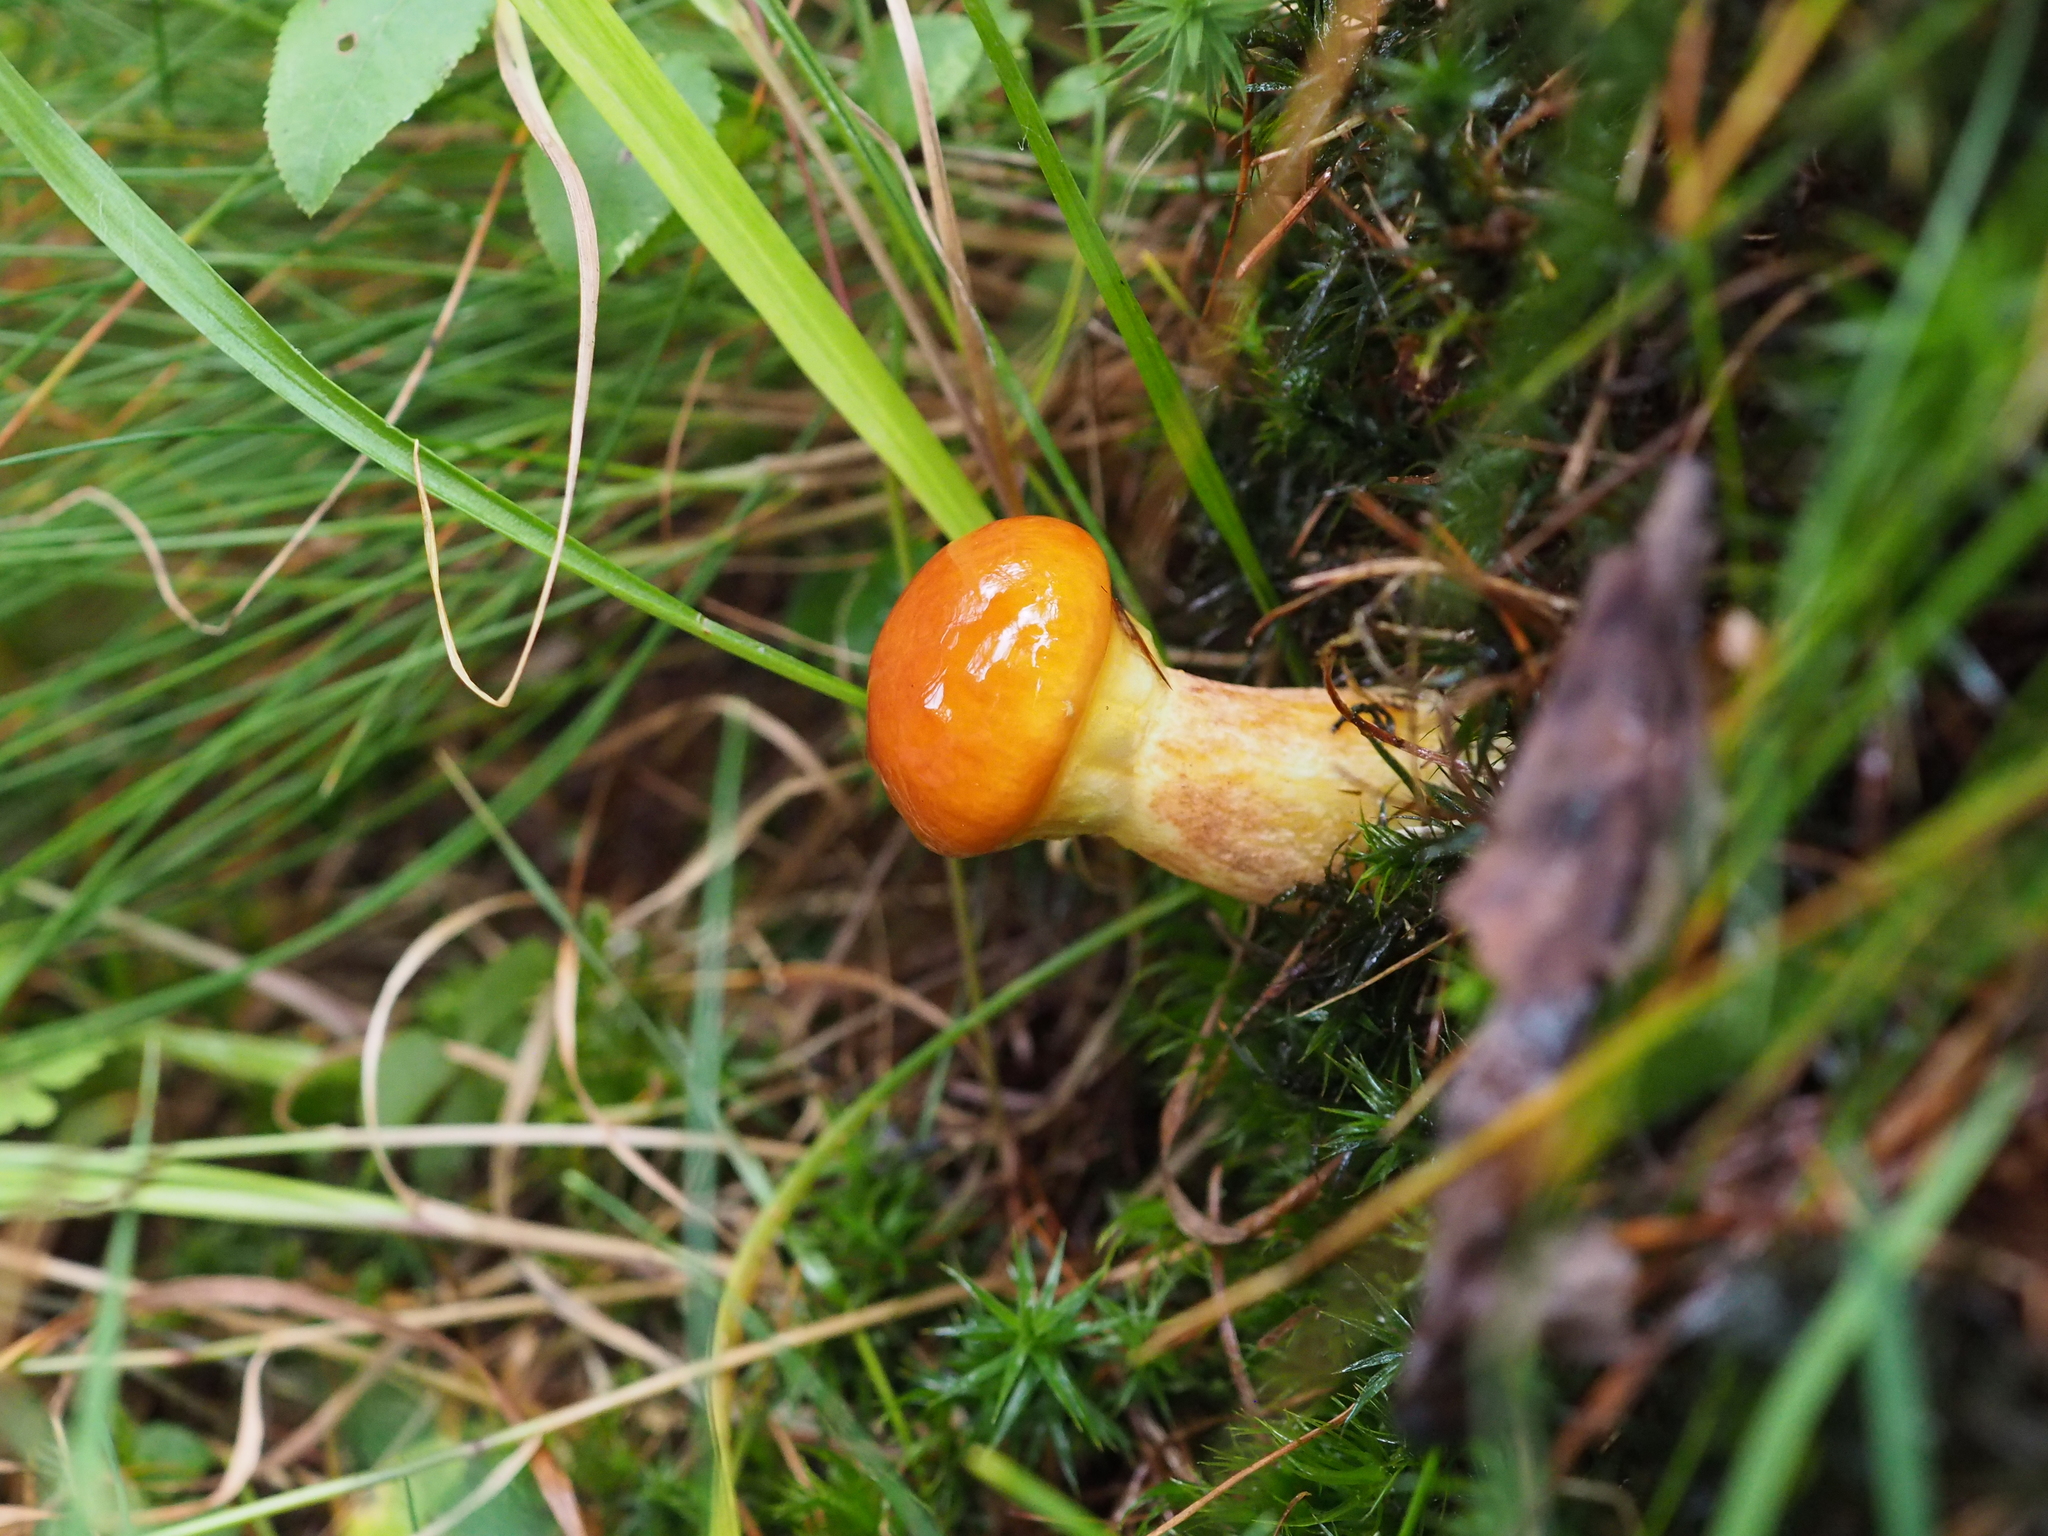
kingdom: Fungi
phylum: Basidiomycota
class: Agaricomycetes
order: Boletales
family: Suillaceae
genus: Suillus
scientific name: Suillus grevillei
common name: Larch bolete
